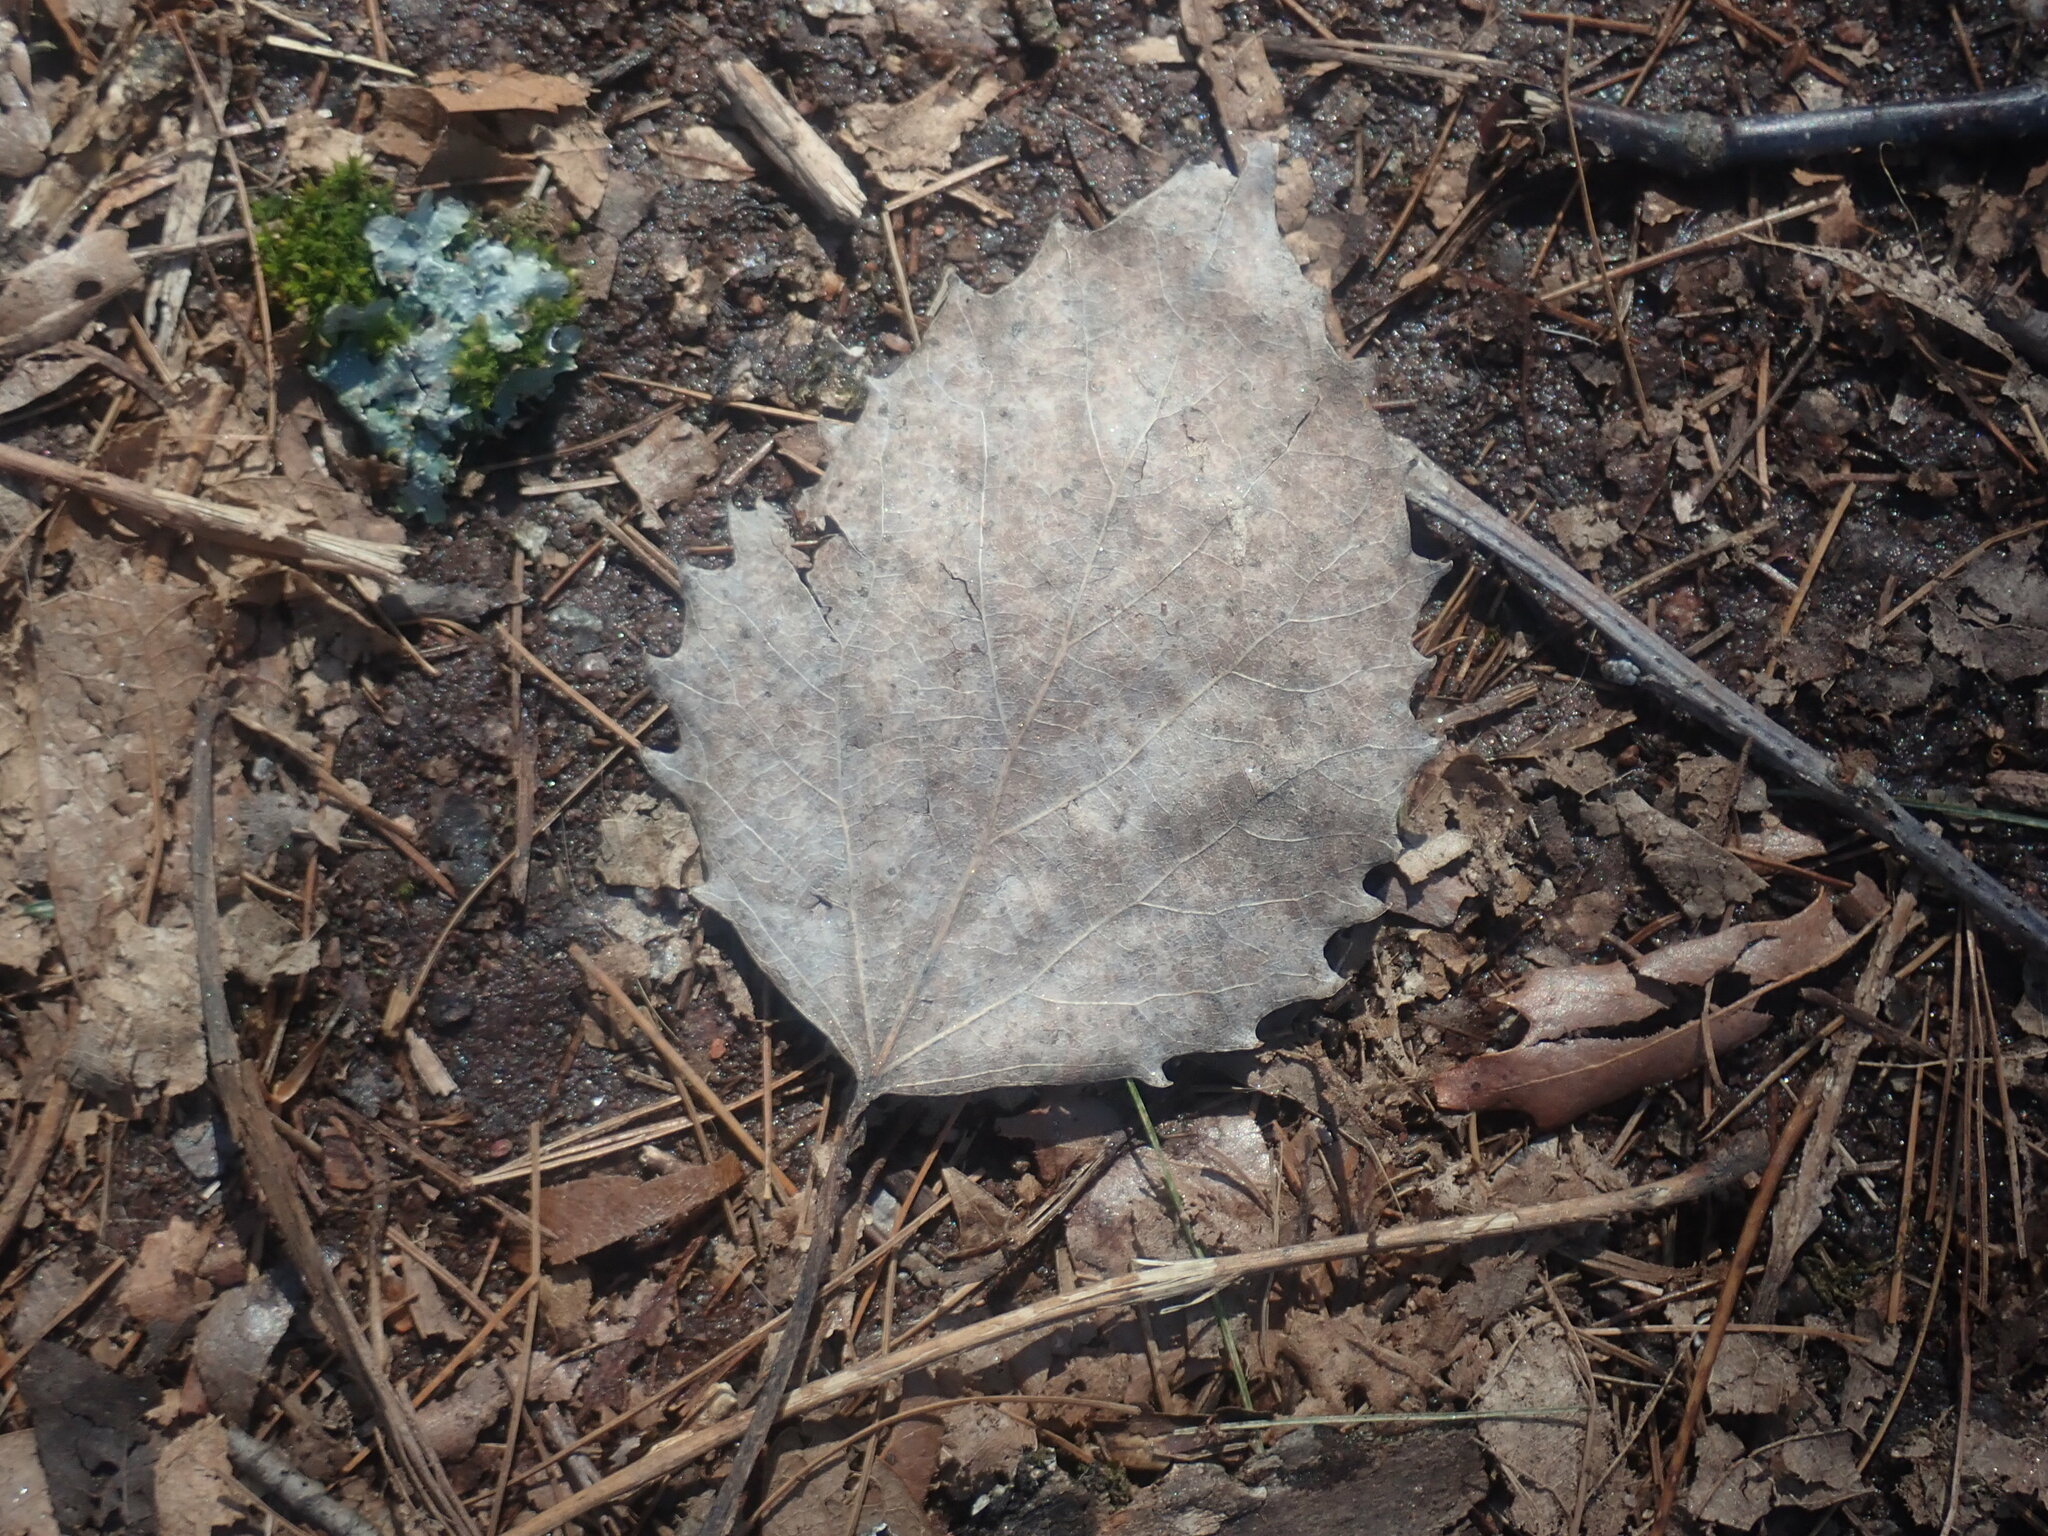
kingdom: Plantae
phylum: Tracheophyta
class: Magnoliopsida
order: Malpighiales
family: Salicaceae
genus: Populus
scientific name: Populus grandidentata
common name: Bigtooth aspen
